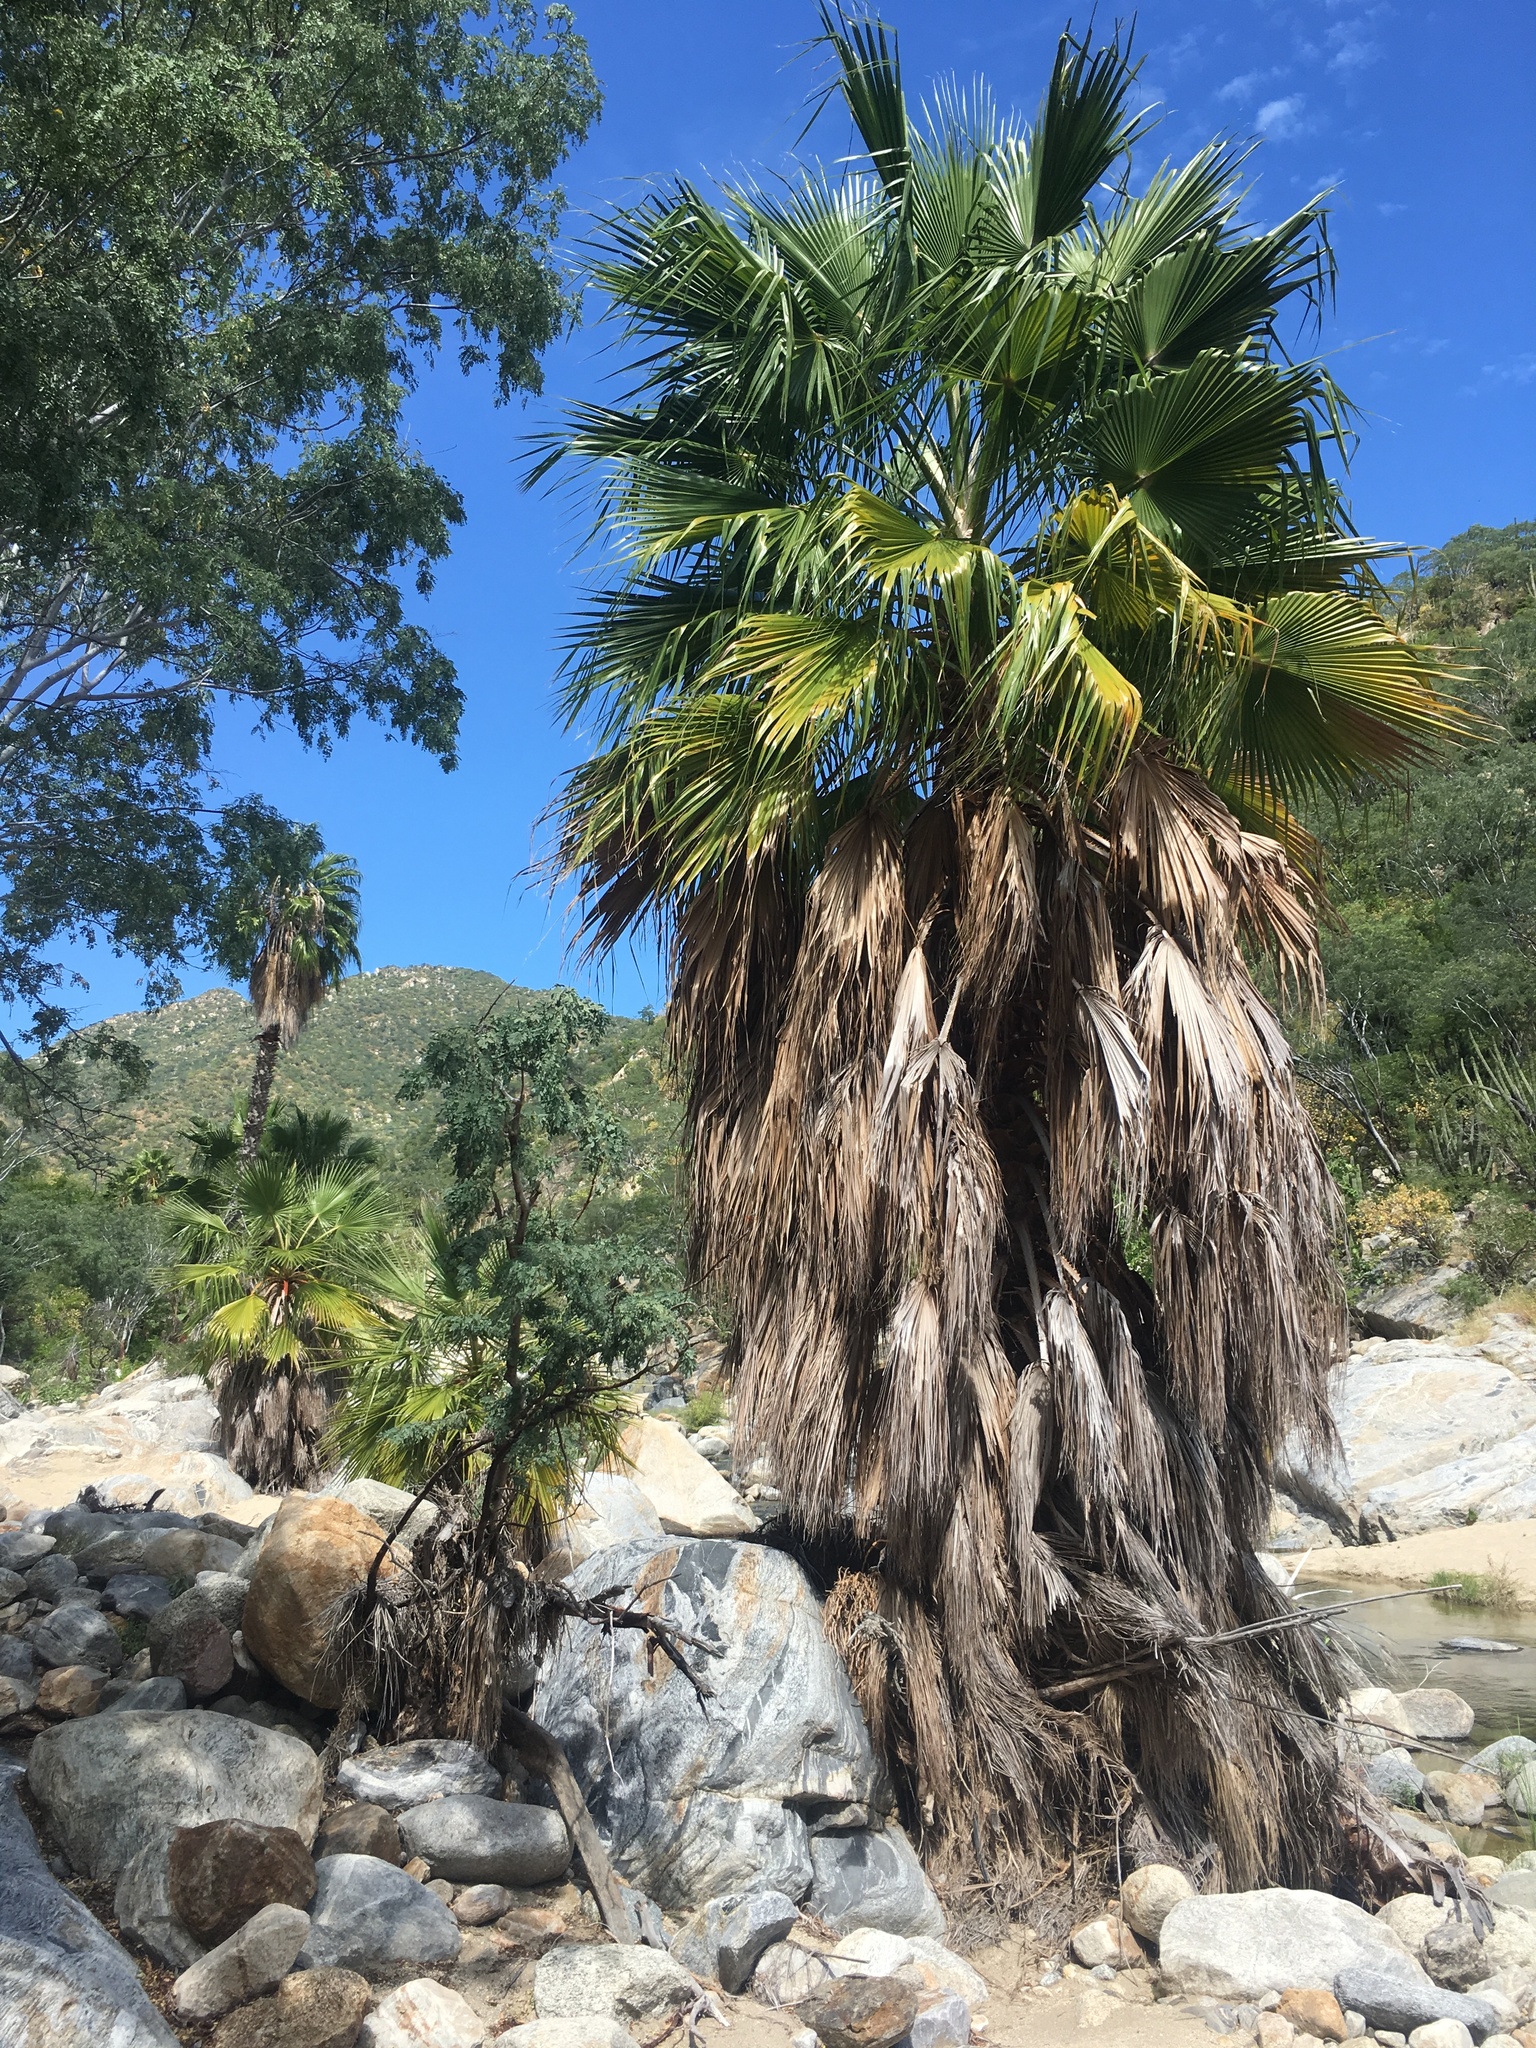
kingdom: Plantae
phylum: Tracheophyta
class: Liliopsida
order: Arecales
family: Arecaceae
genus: Washingtonia
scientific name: Washingtonia robusta
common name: Mexican fan palm
